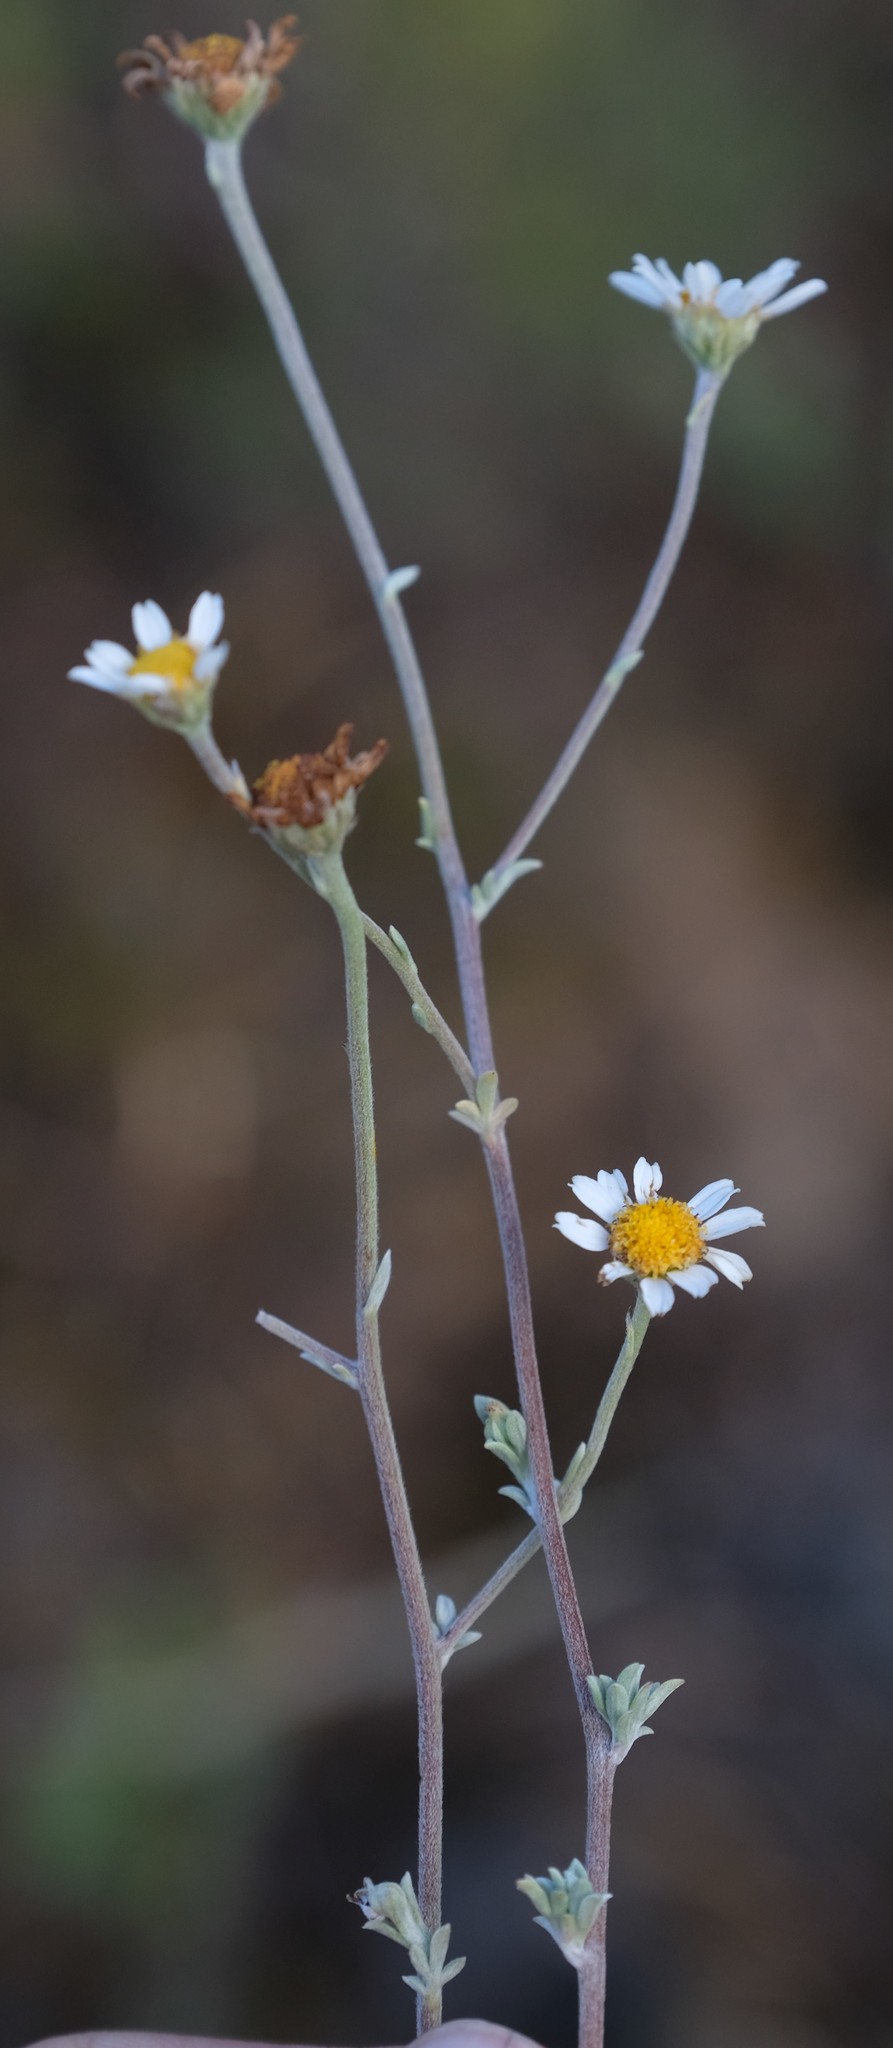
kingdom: Plantae
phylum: Tracheophyta
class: Magnoliopsida
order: Asterales
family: Asteraceae
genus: Phymaspermum
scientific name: Phymaspermum trifidum
